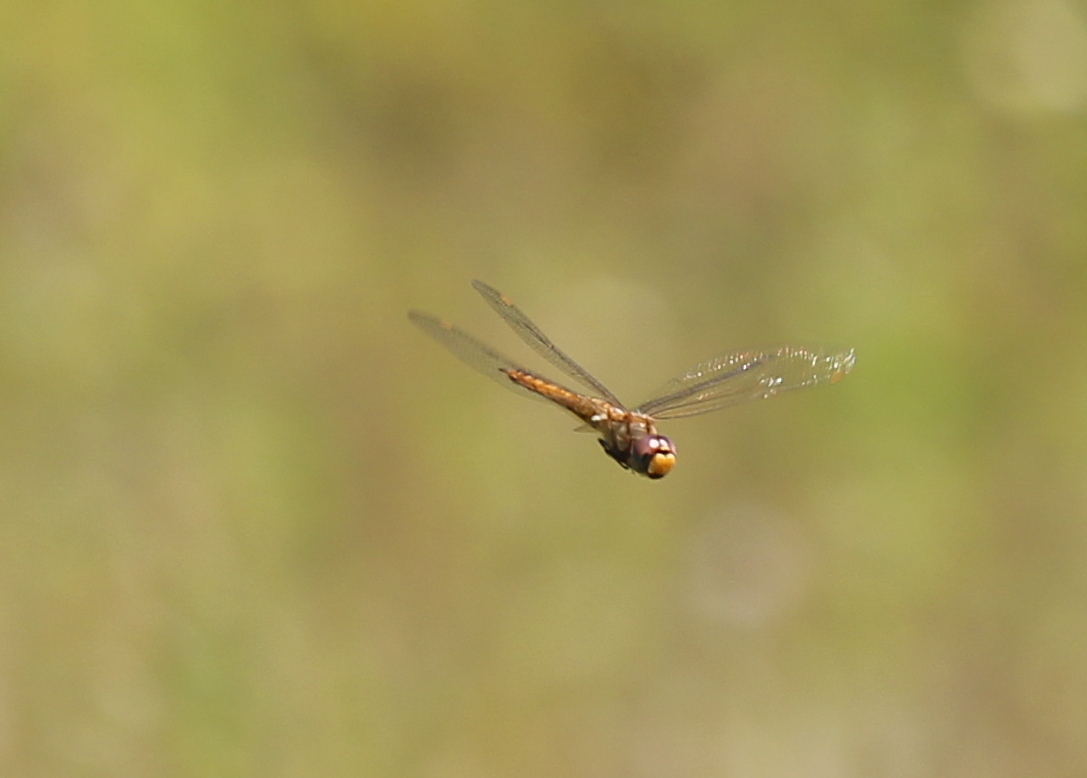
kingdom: Animalia
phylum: Arthropoda
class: Insecta
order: Odonata
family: Libellulidae
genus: Pantala
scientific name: Pantala flavescens
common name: Wandering glider
